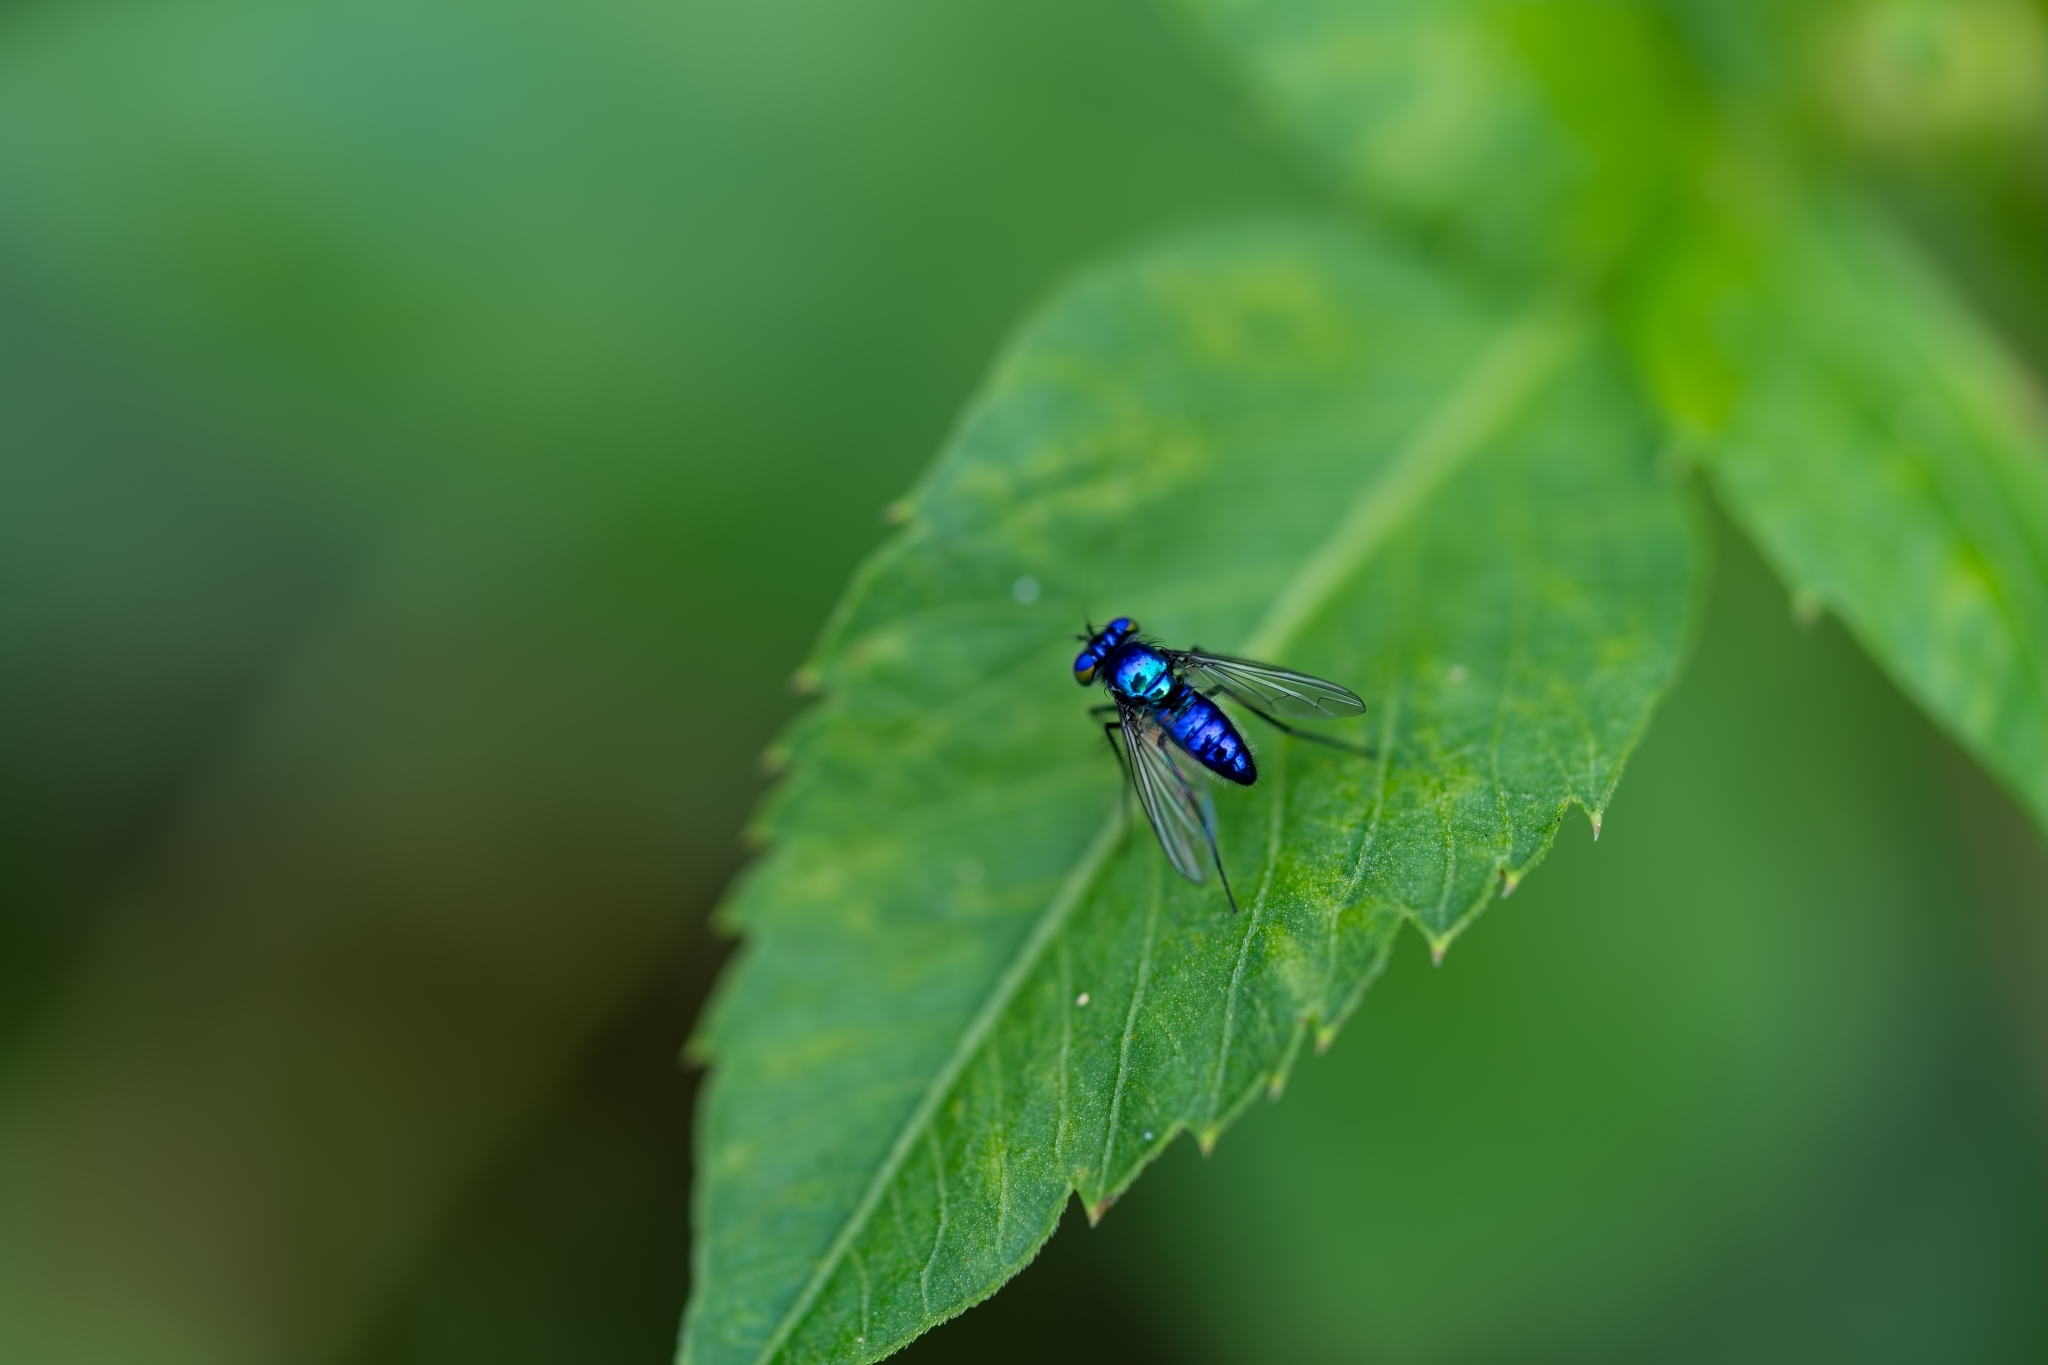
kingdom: Animalia
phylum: Arthropoda
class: Insecta
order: Diptera
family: Dolichopodidae
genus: Condylostylus
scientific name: Condylostylus mundus
